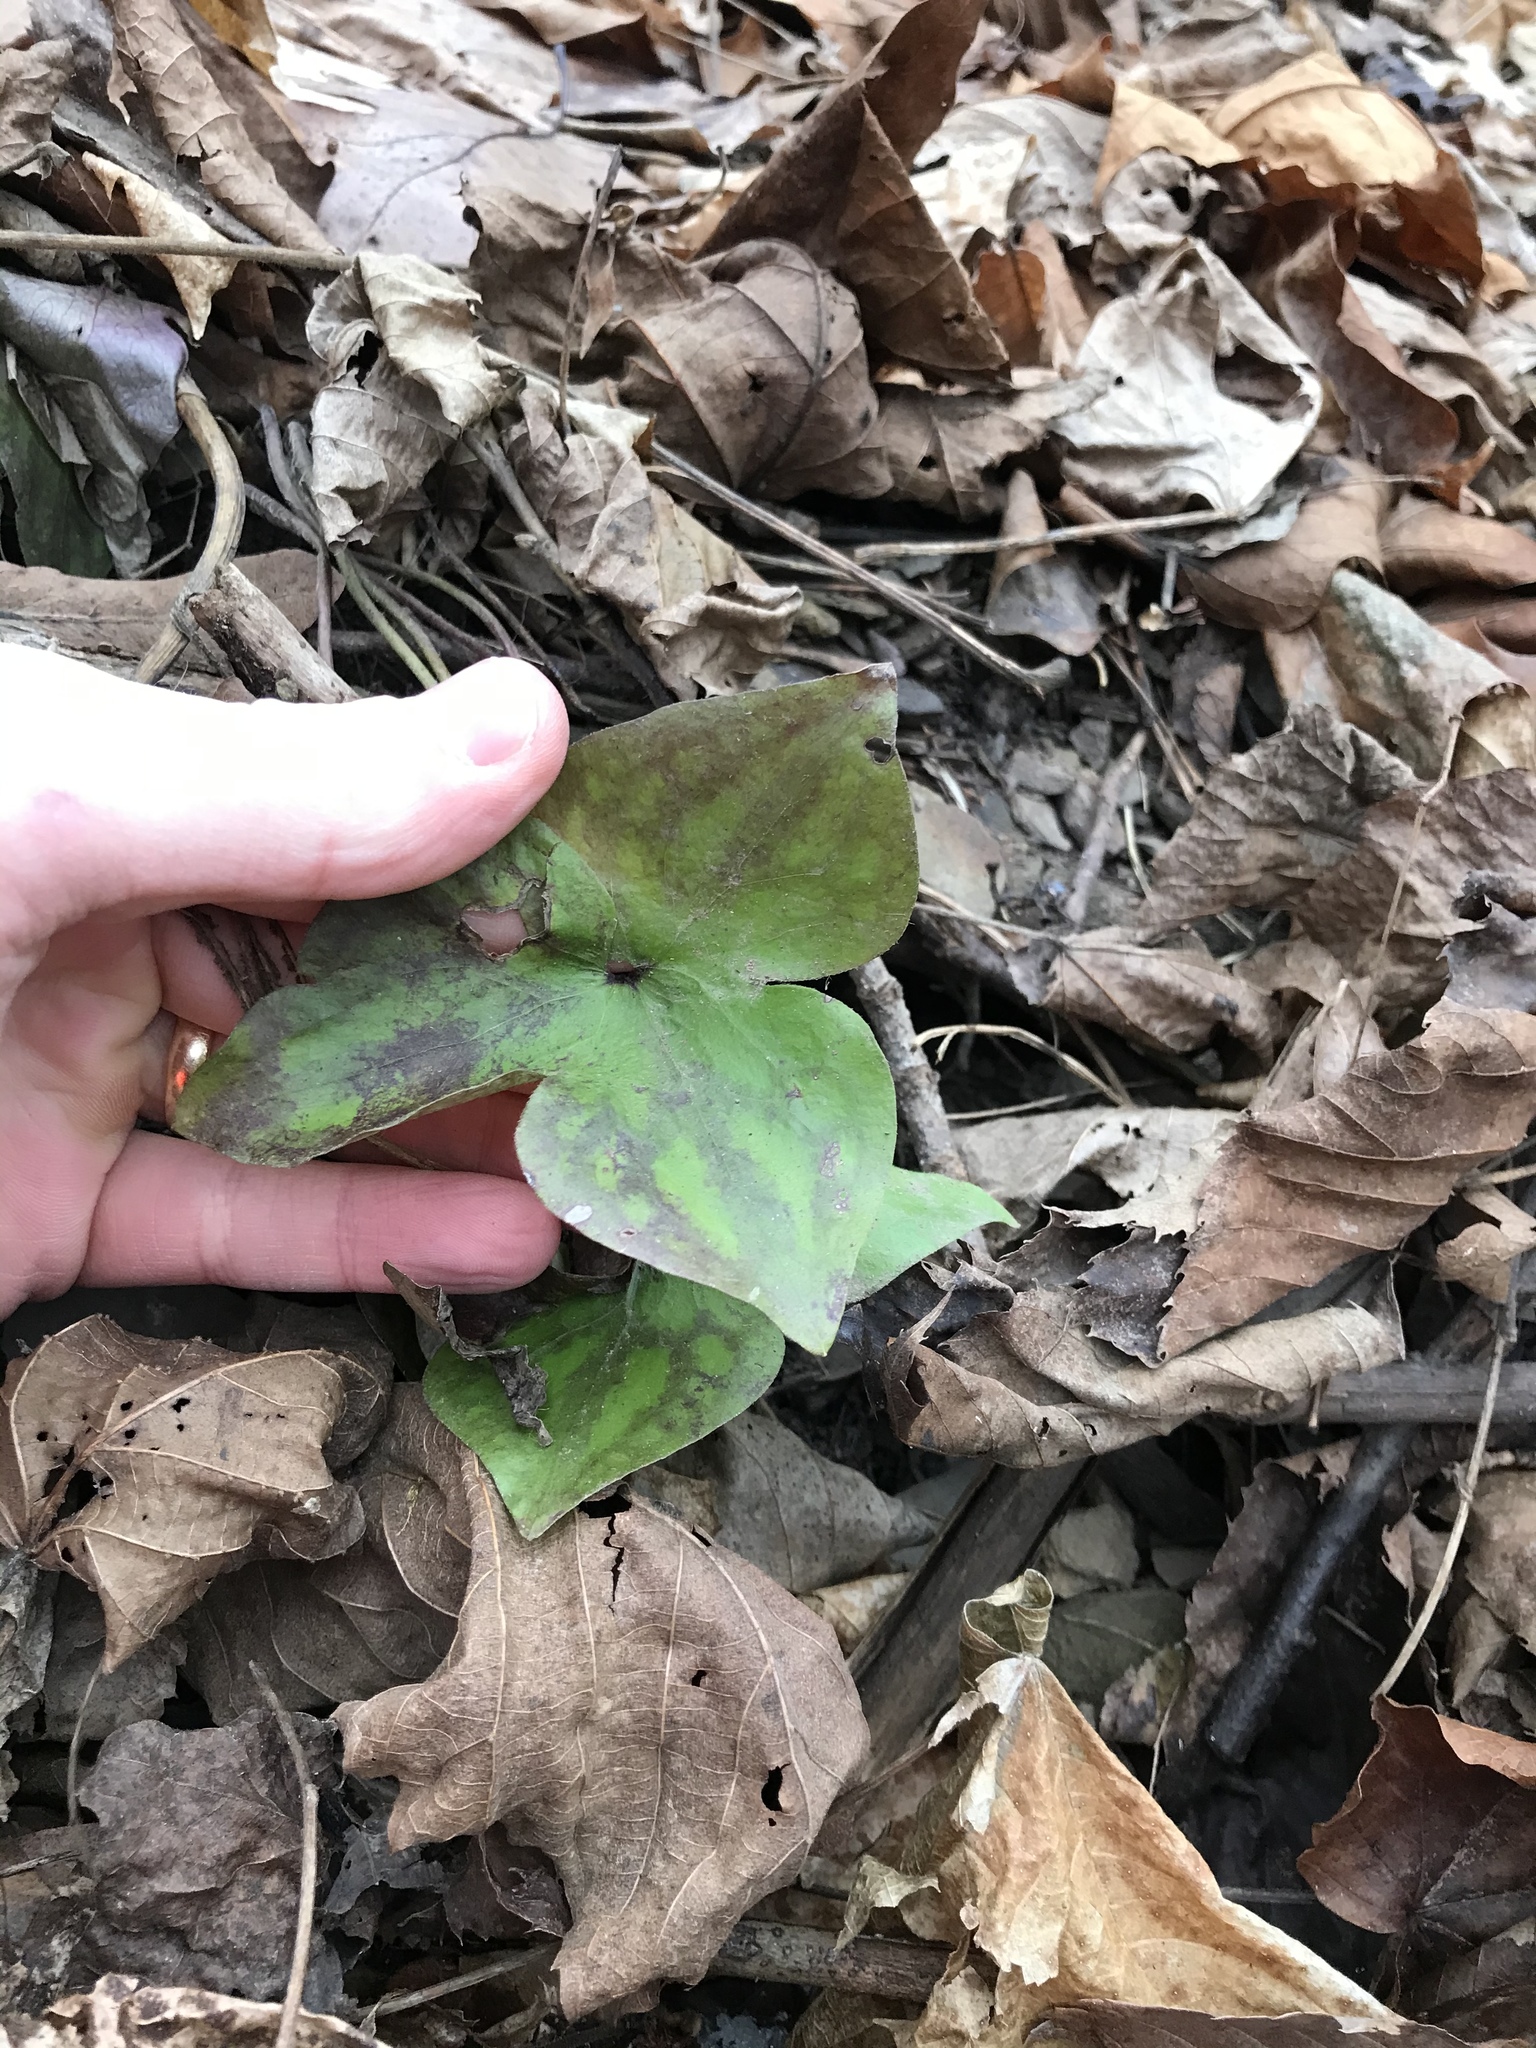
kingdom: Plantae
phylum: Tracheophyta
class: Magnoliopsida
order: Ranunculales
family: Ranunculaceae
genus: Hepatica
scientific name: Hepatica acutiloba
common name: Sharp-lobed hepatica
